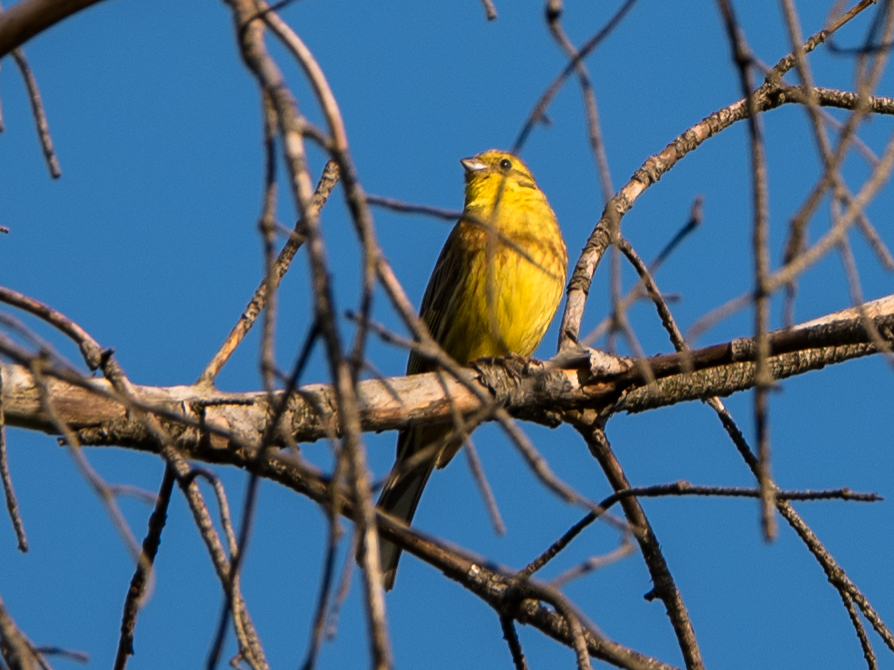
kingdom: Animalia
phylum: Chordata
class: Aves
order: Passeriformes
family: Emberizidae
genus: Emberiza
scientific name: Emberiza citrinella
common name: Yellowhammer
